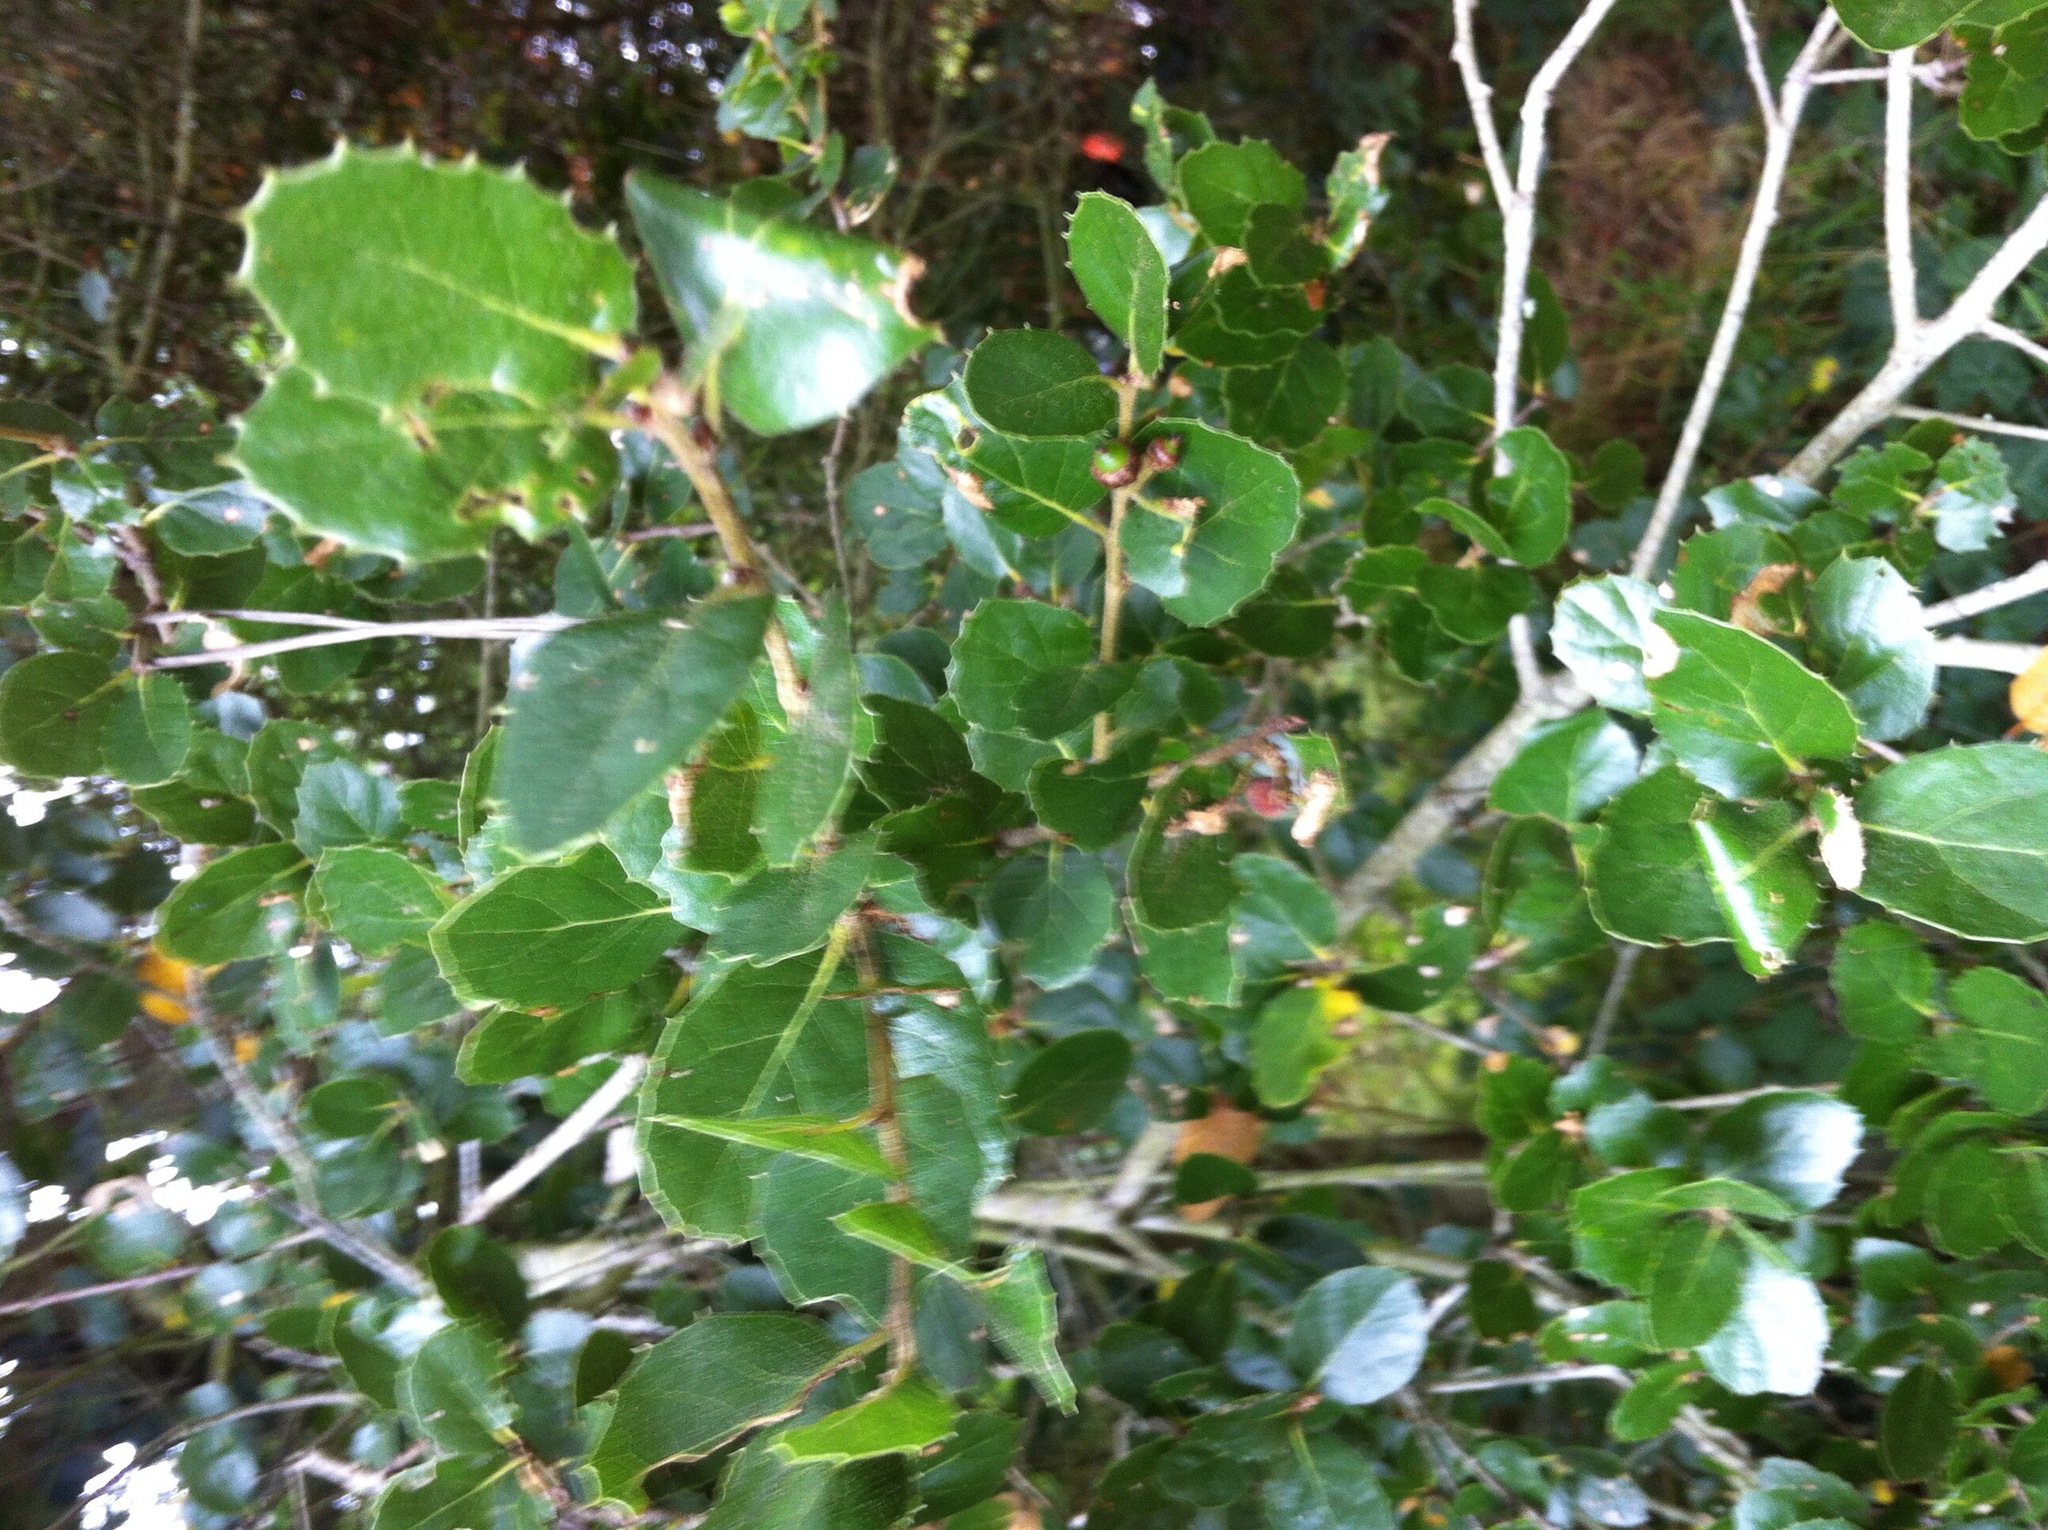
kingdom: Plantae
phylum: Tracheophyta
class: Magnoliopsida
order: Fagales
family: Fagaceae
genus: Quercus
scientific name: Quercus agrifolia
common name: California live oak
